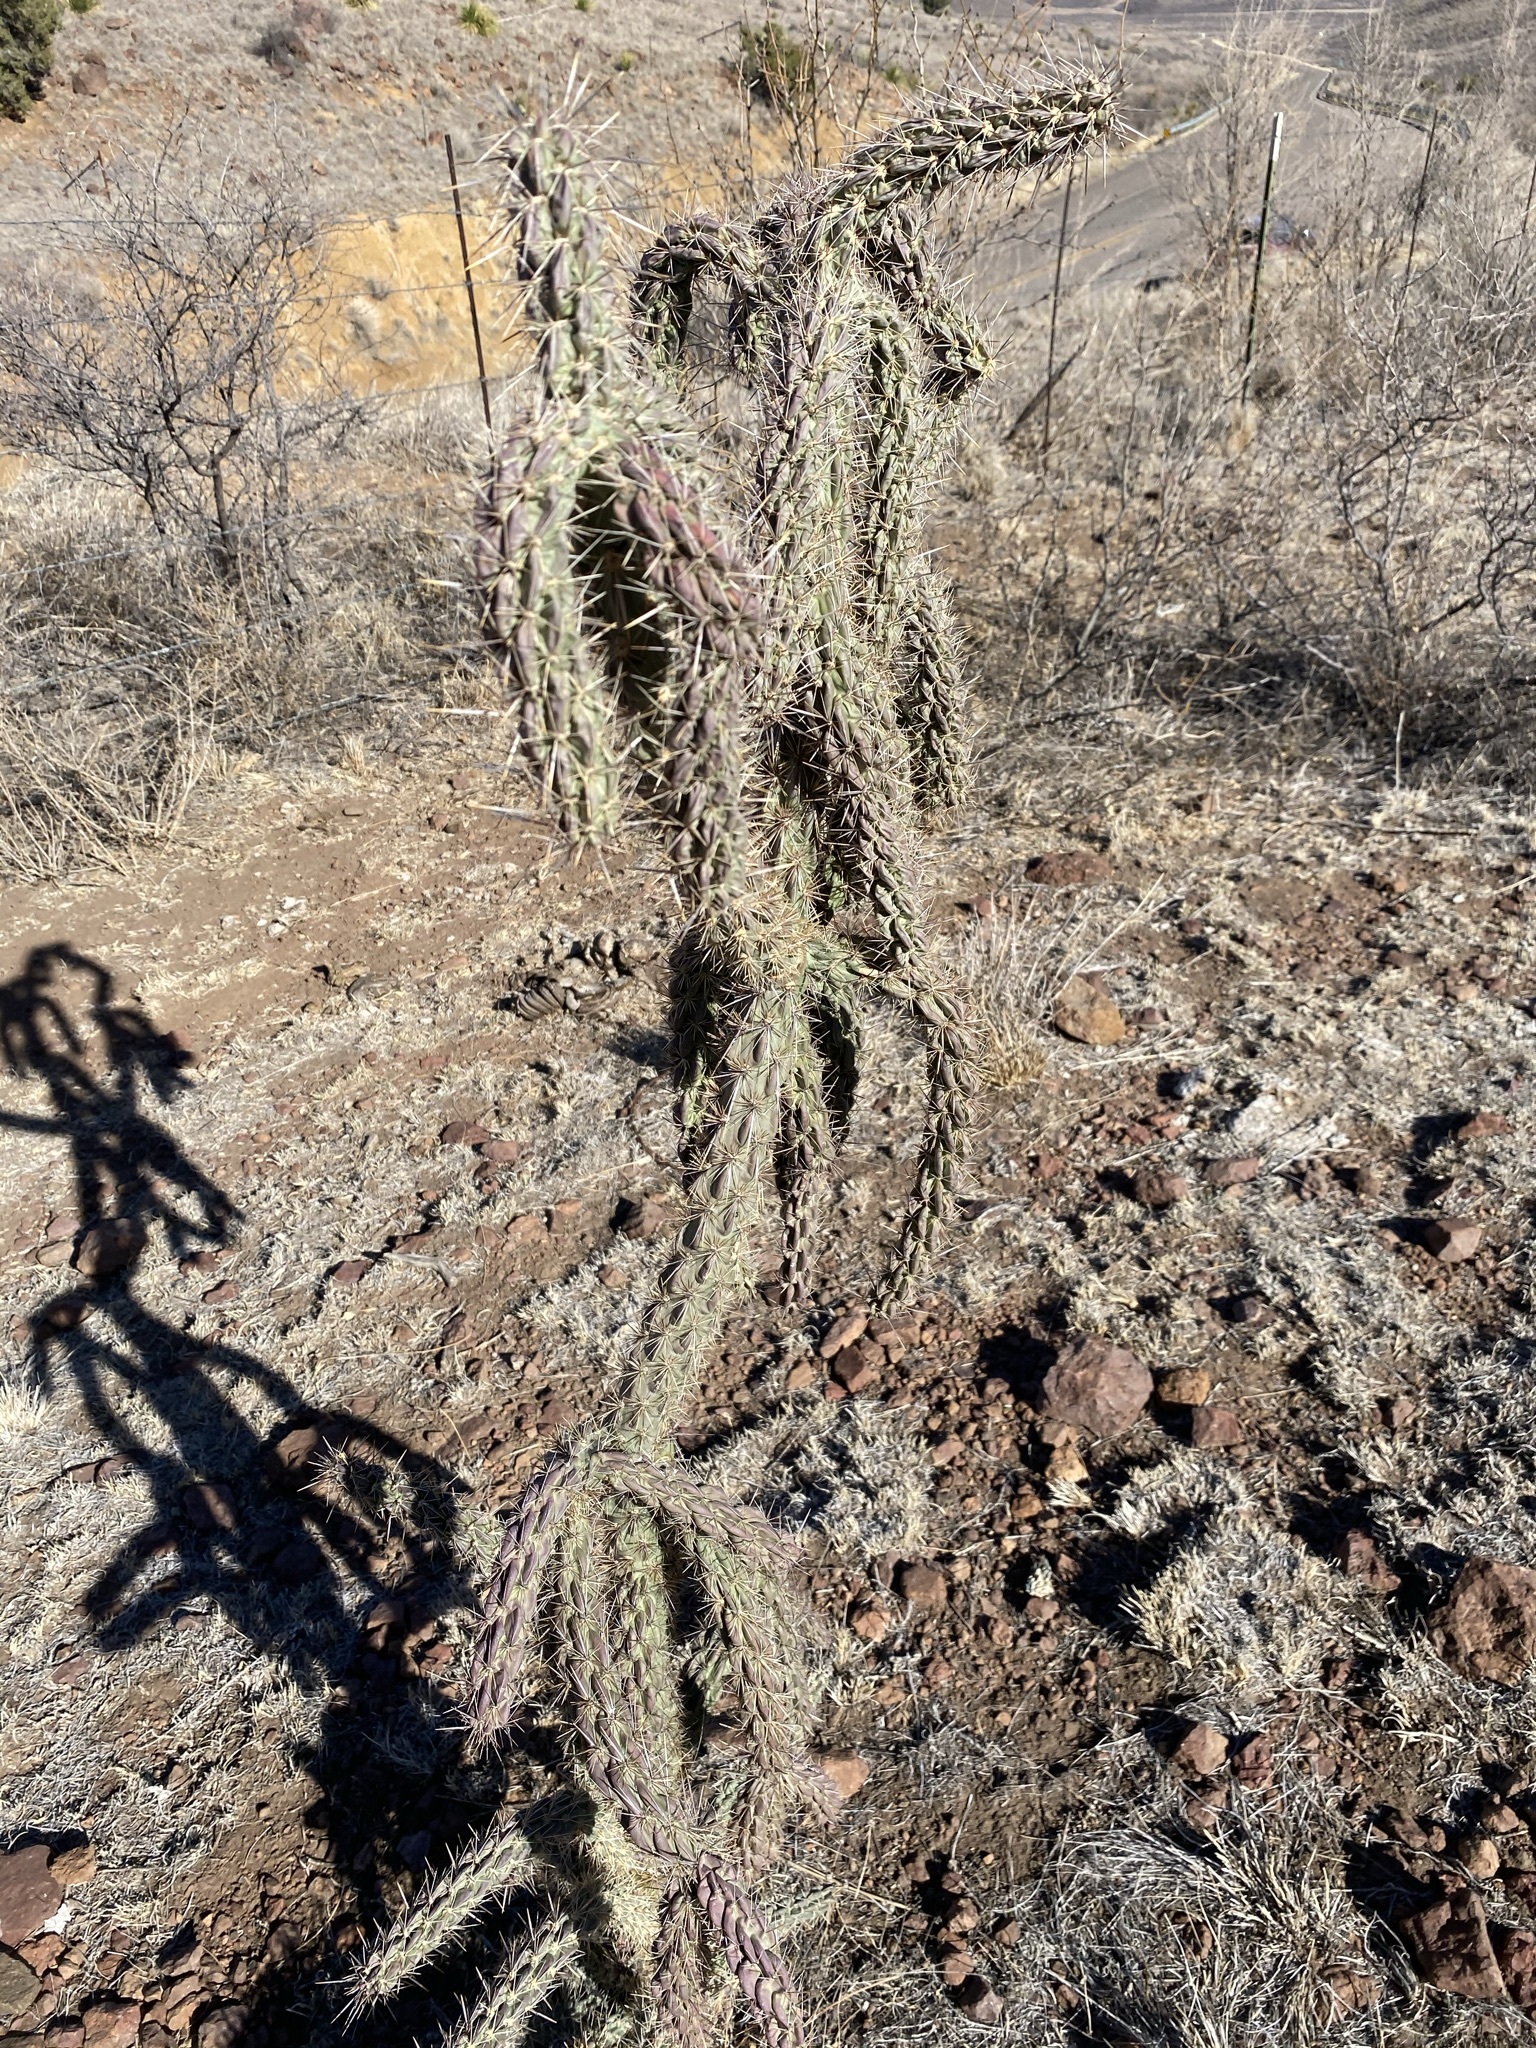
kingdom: Plantae
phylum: Tracheophyta
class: Magnoliopsida
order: Caryophyllales
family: Cactaceae
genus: Cylindropuntia
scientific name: Cylindropuntia imbricata
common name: Candelabrum cactus
